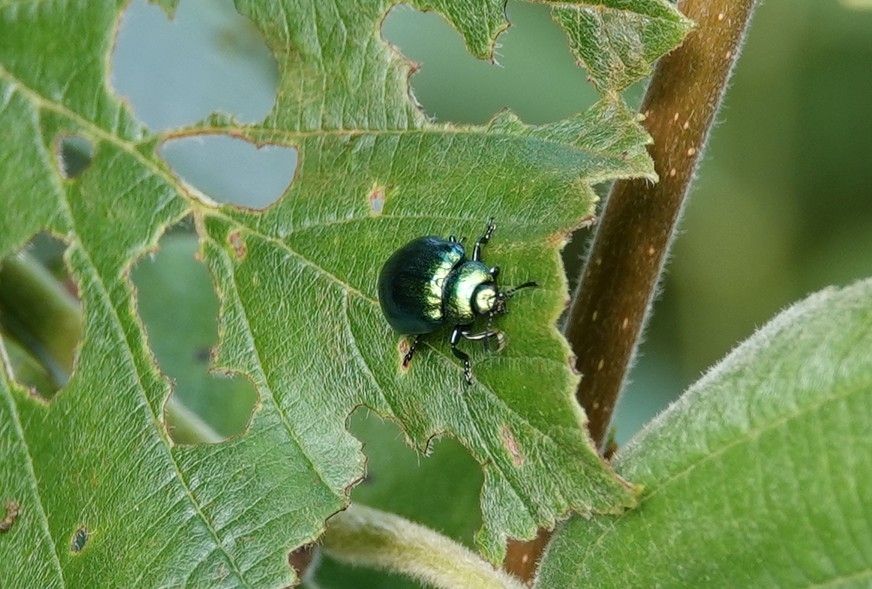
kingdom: Animalia
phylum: Arthropoda
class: Insecta
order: Coleoptera
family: Chrysomelidae
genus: Plagiosterna
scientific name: Plagiosterna aenea
